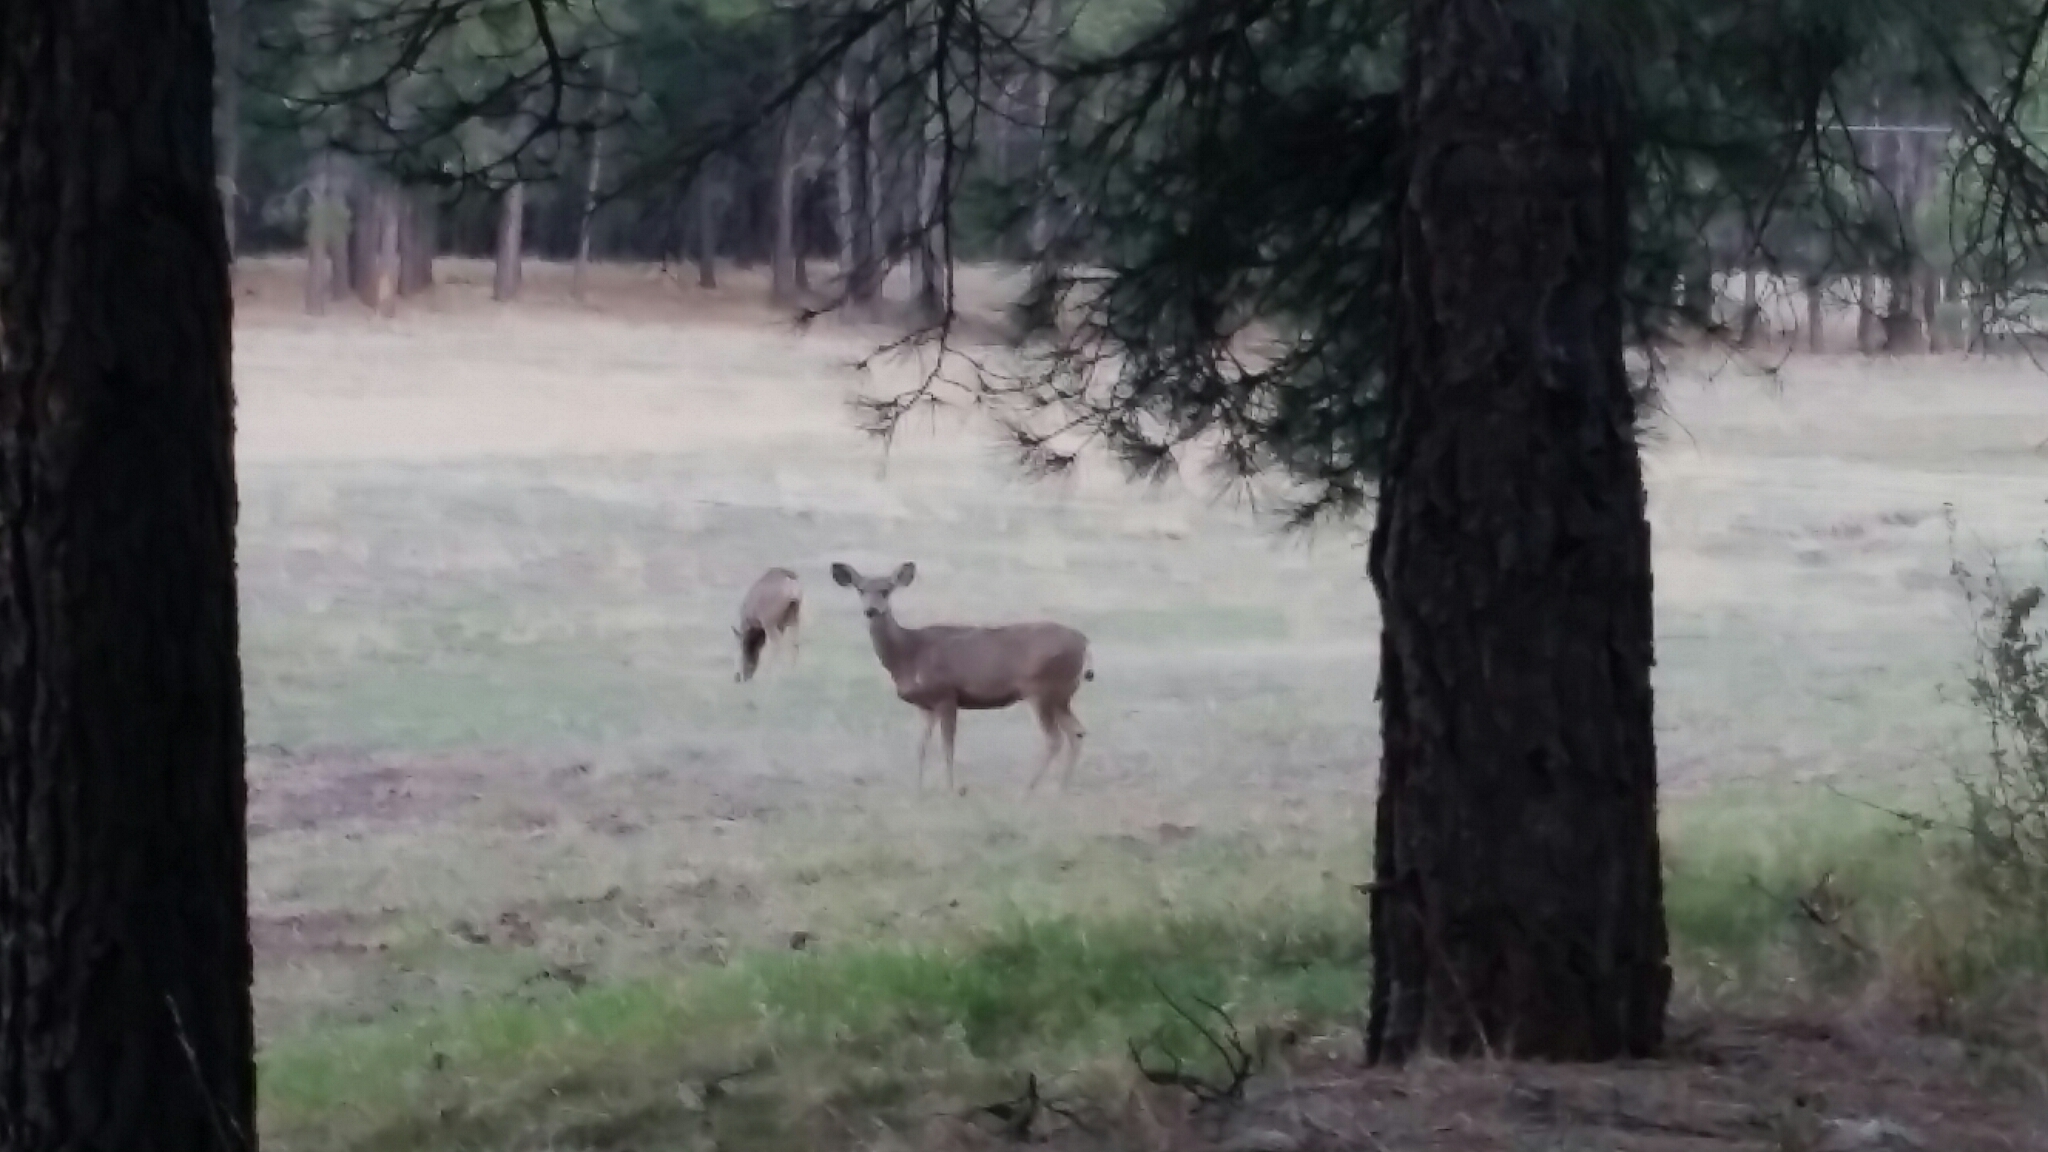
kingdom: Animalia
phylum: Chordata
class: Mammalia
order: Artiodactyla
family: Cervidae
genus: Odocoileus
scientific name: Odocoileus hemionus
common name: Mule deer
